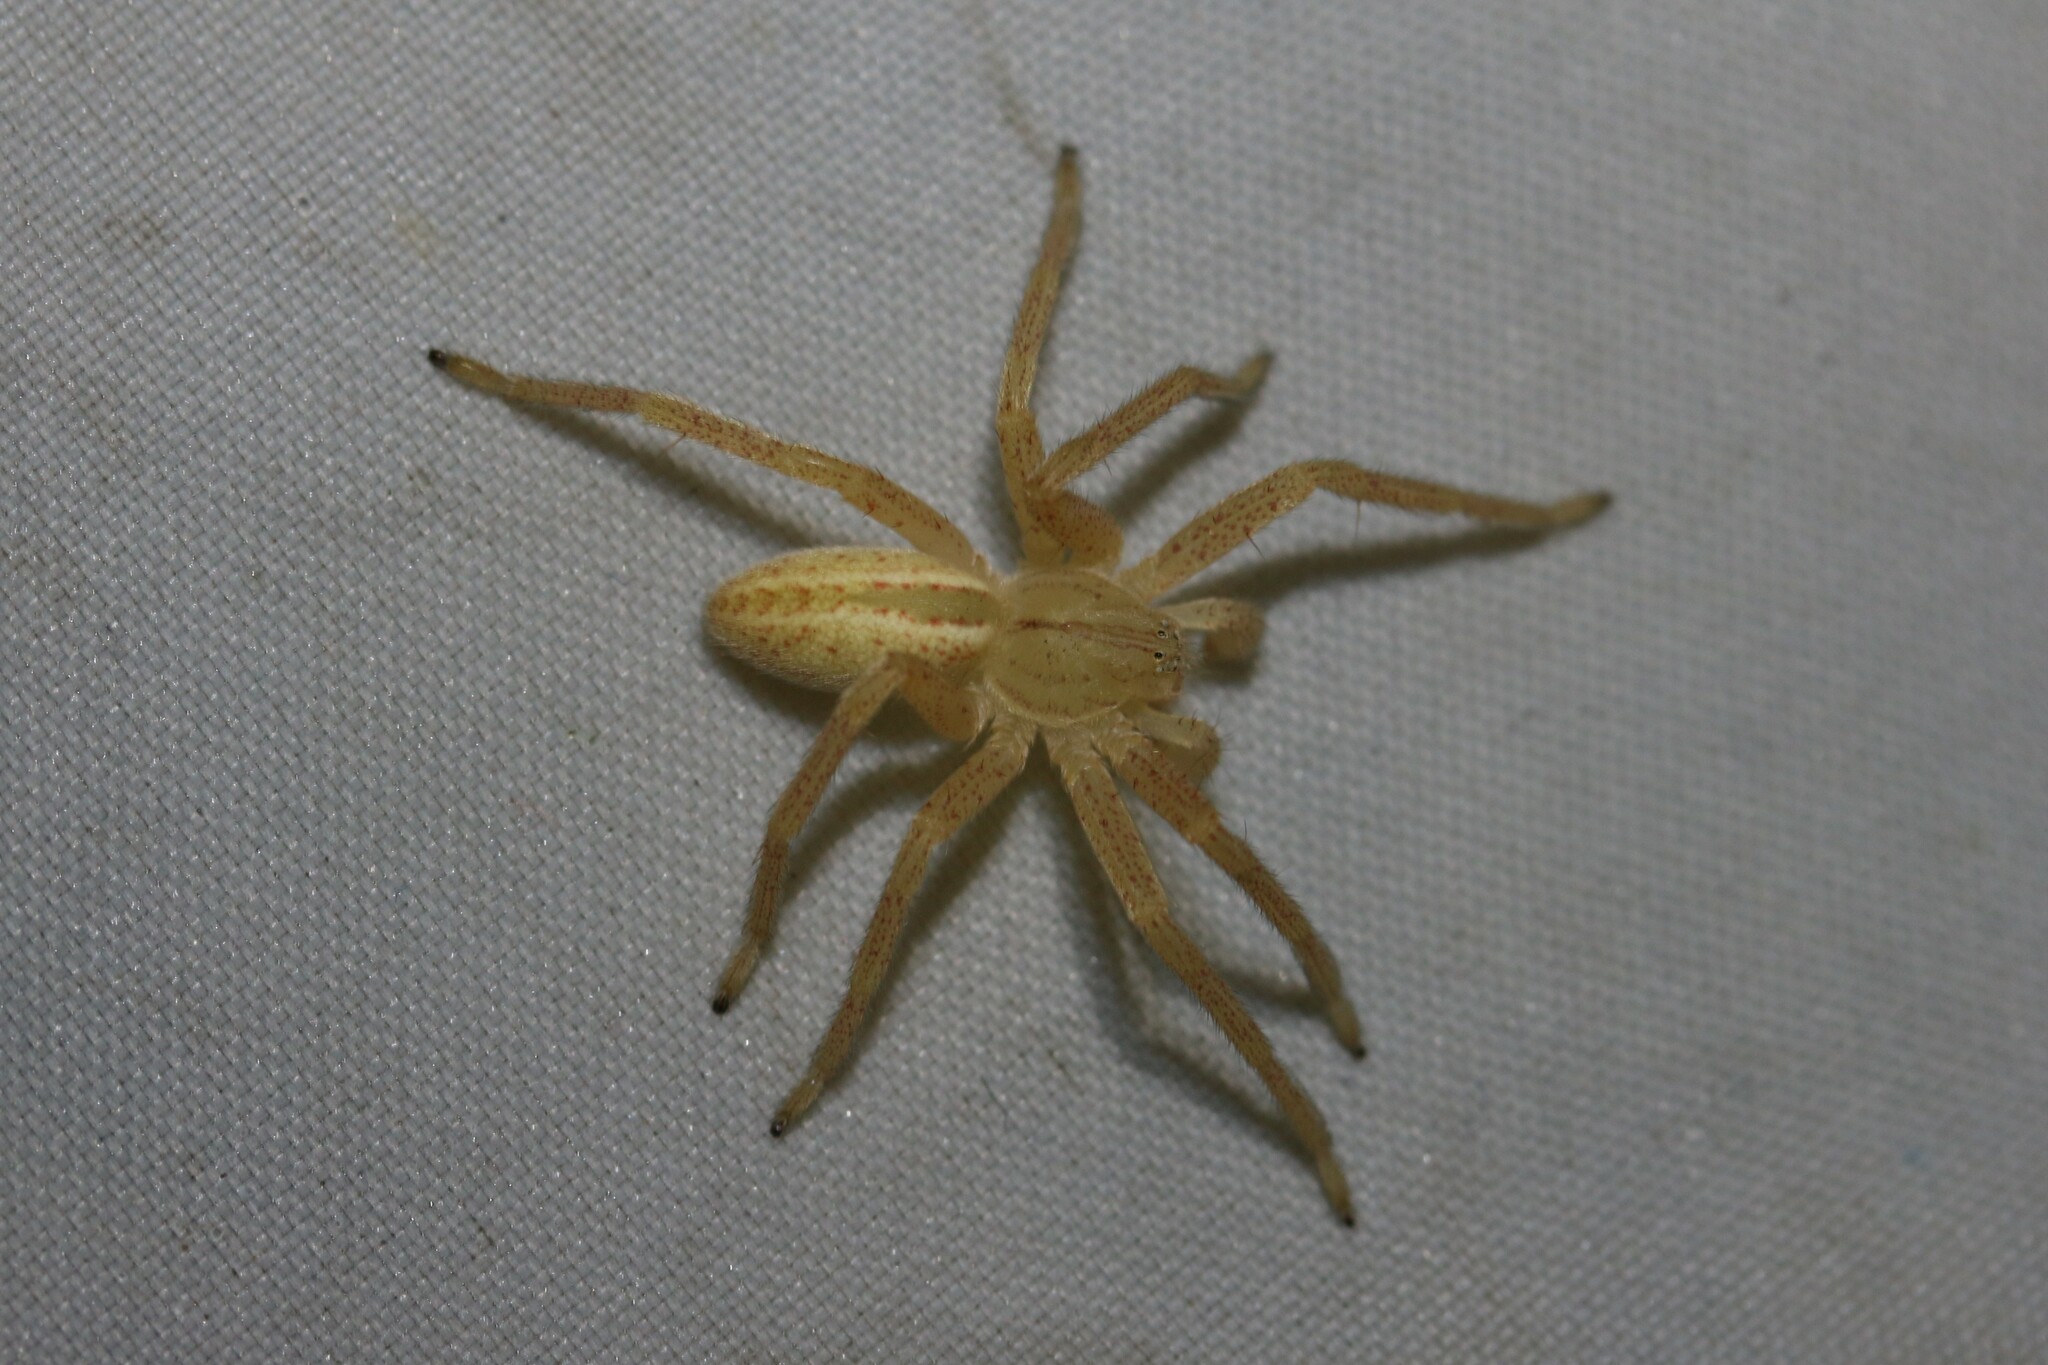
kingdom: Animalia
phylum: Arthropoda
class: Arachnida
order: Araneae
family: Sparassidae
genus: Micrommata
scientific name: Micrommata virescens
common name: Green spider
